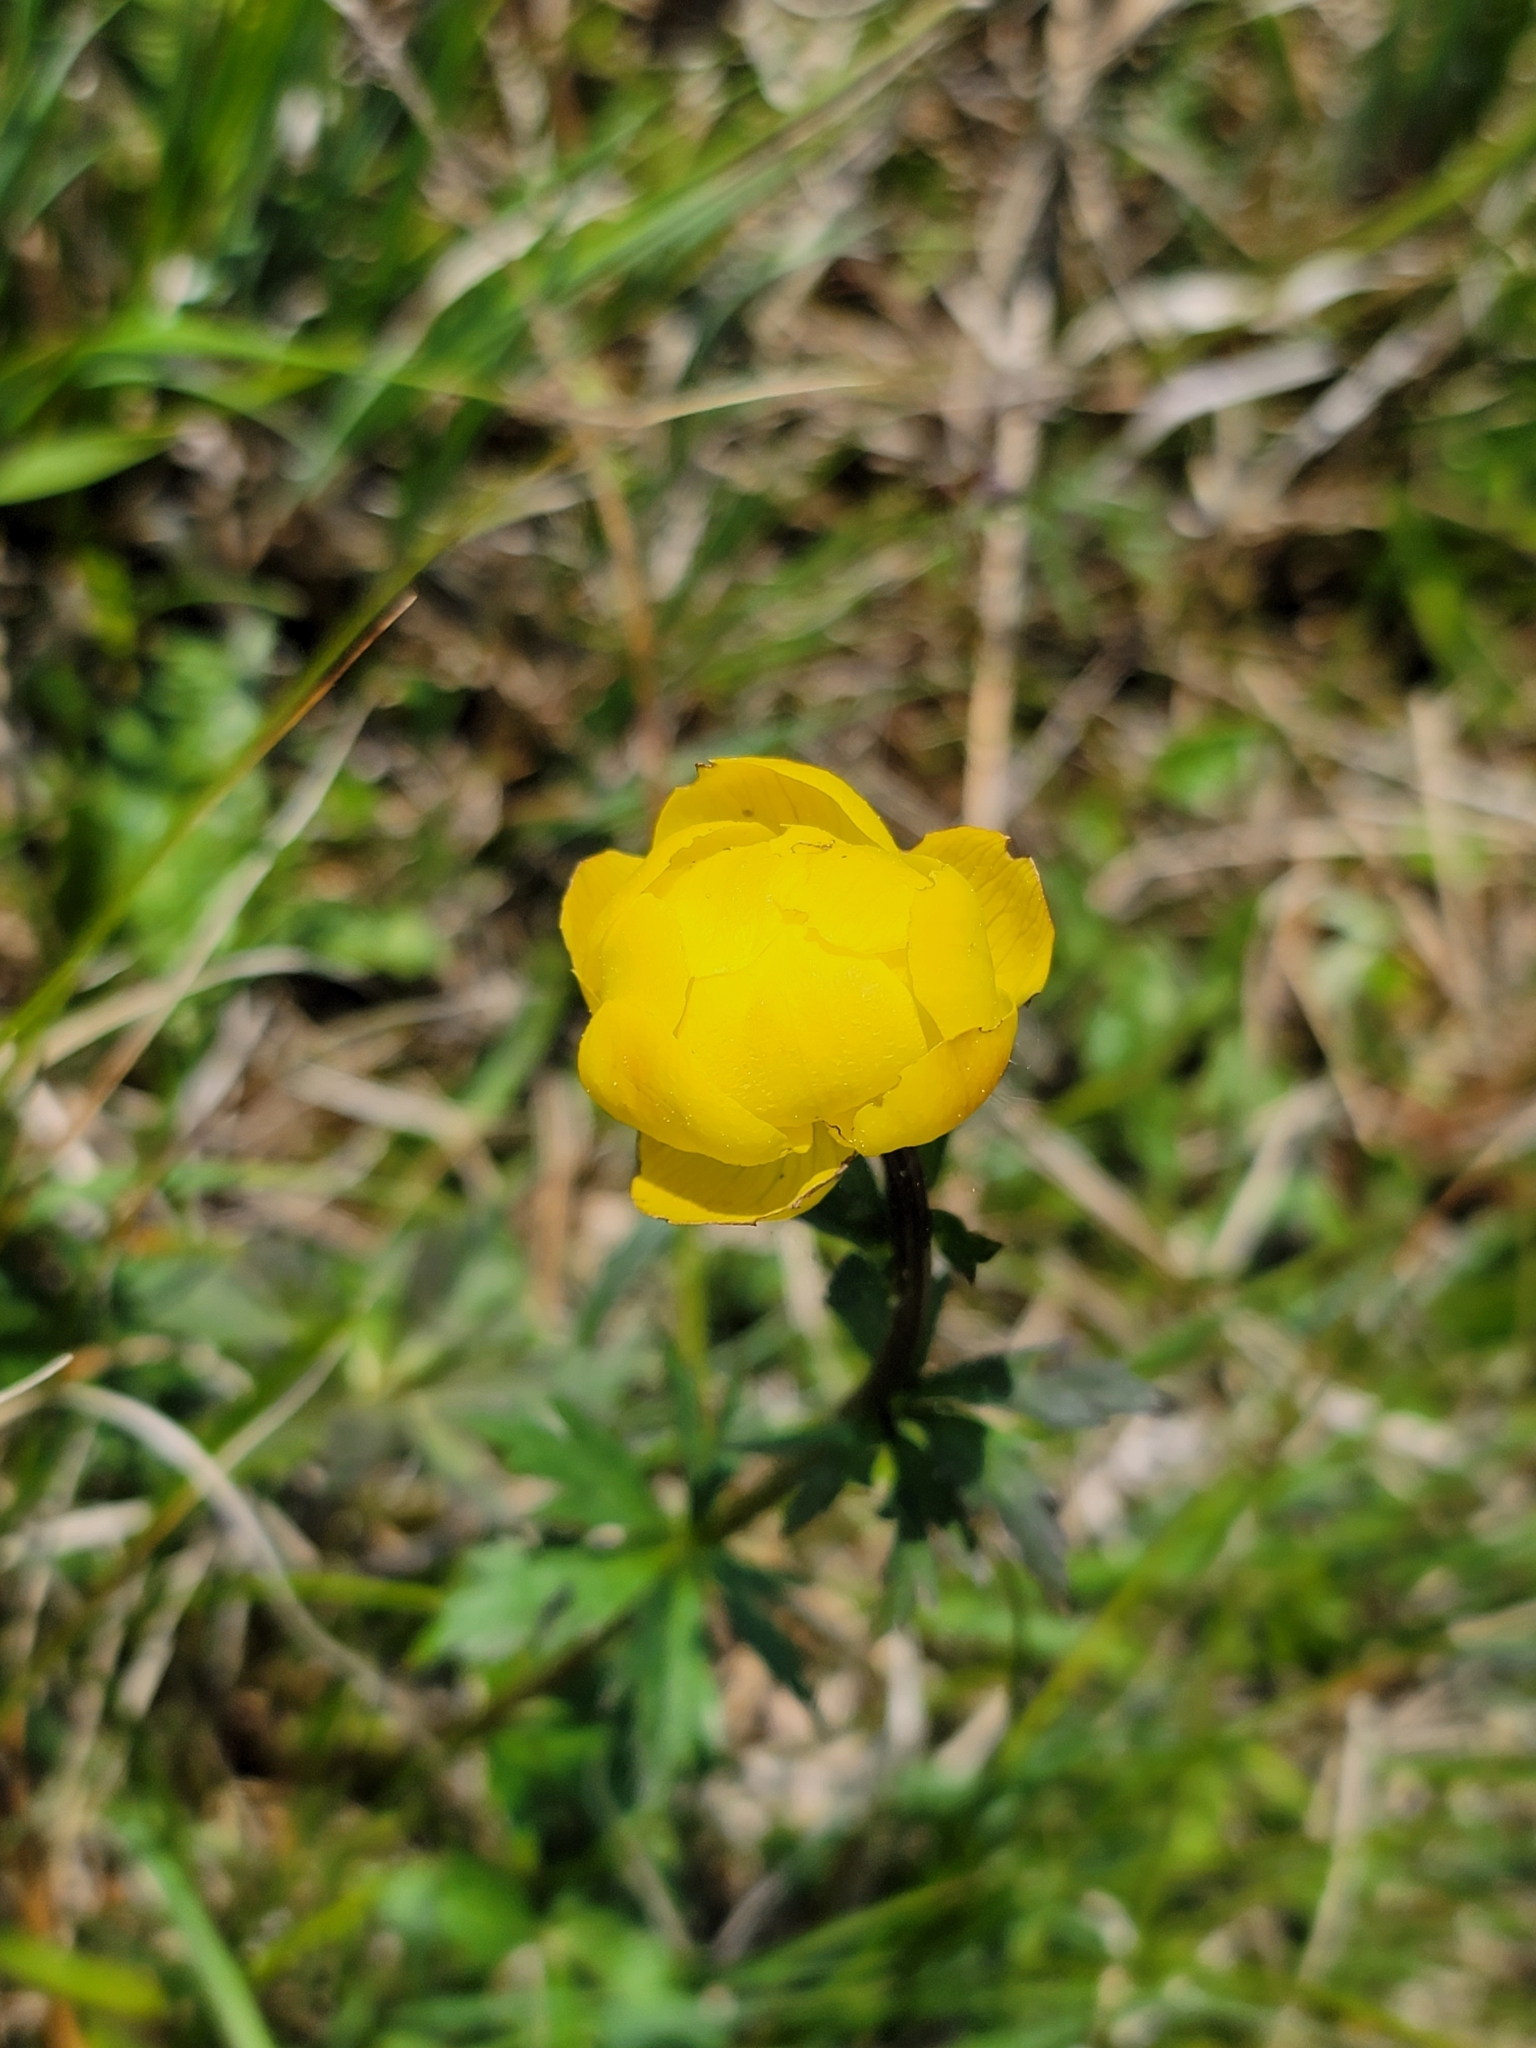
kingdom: Plantae
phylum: Tracheophyta
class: Magnoliopsida
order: Ranunculales
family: Ranunculaceae
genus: Trollius
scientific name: Trollius europaeus
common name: European globeflower
